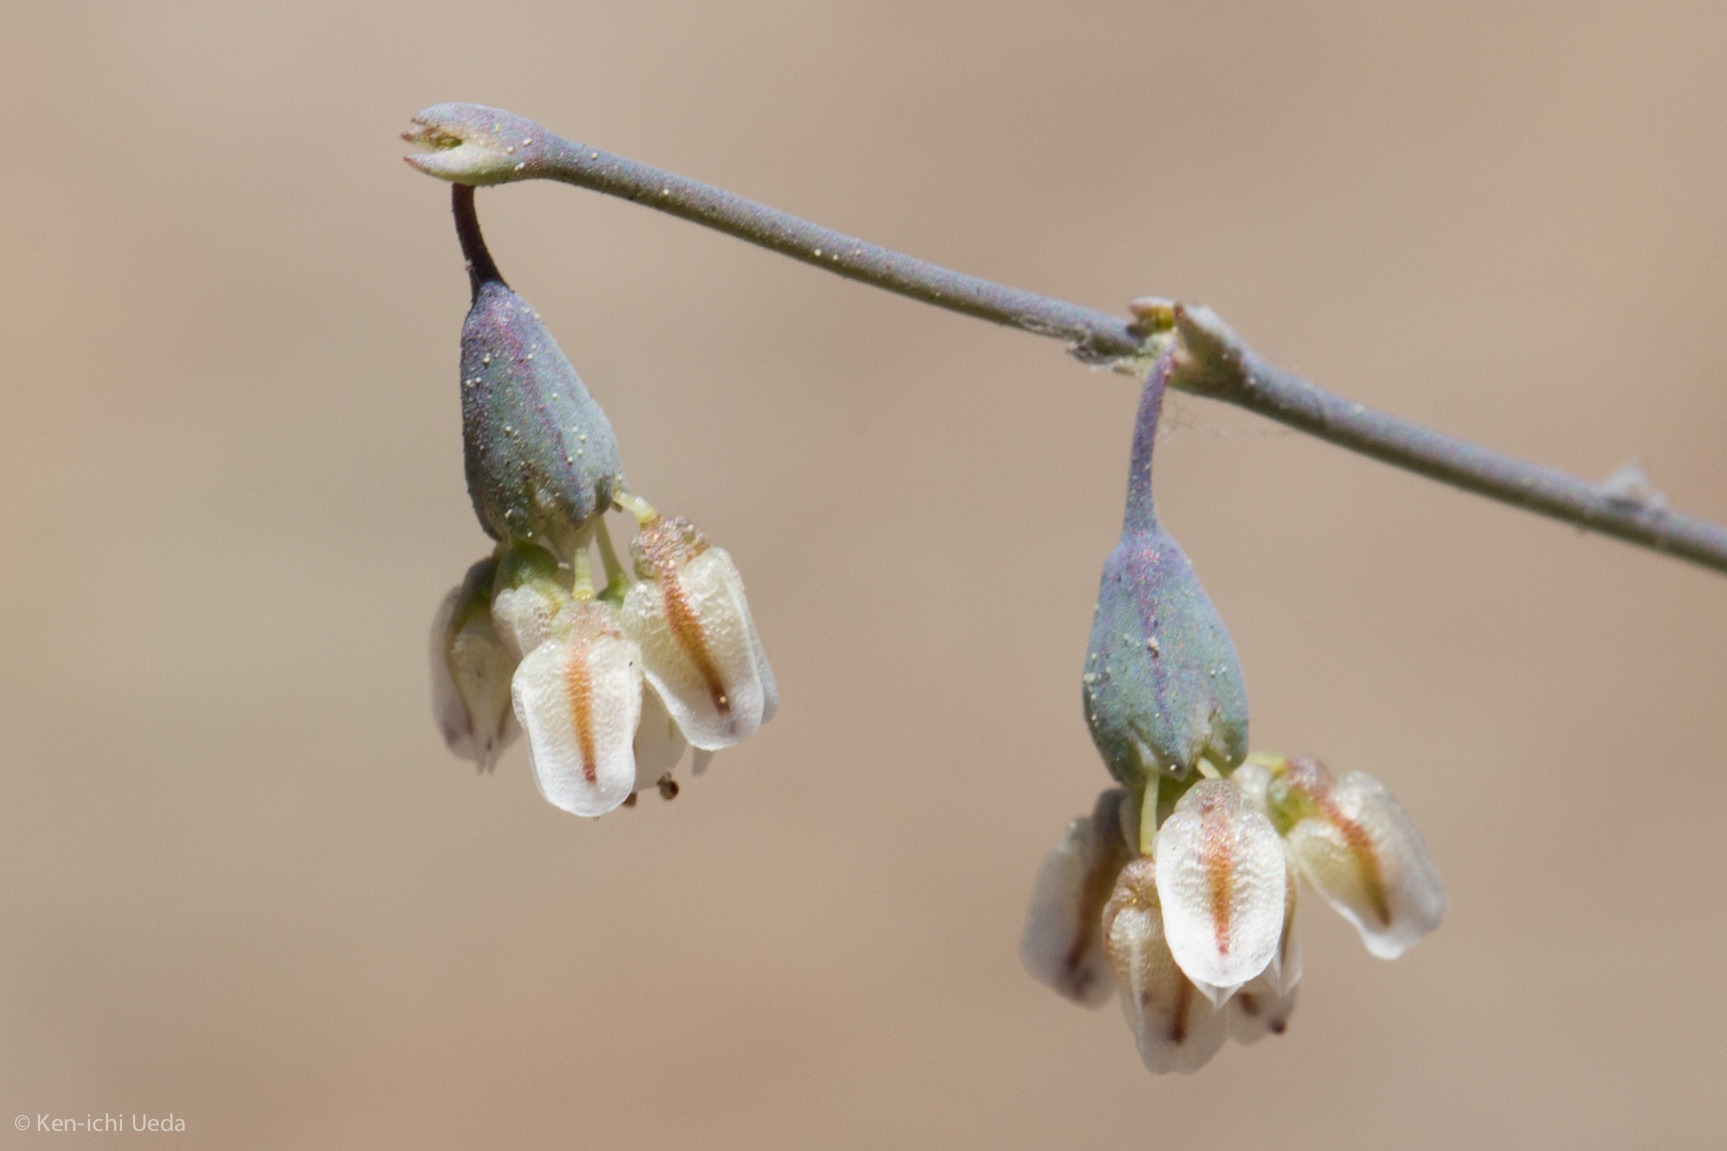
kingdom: Plantae
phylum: Tracheophyta
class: Magnoliopsida
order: Caryophyllales
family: Polygonaceae
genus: Eriogonum
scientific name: Eriogonum deflexum
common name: Skeleton-weed
